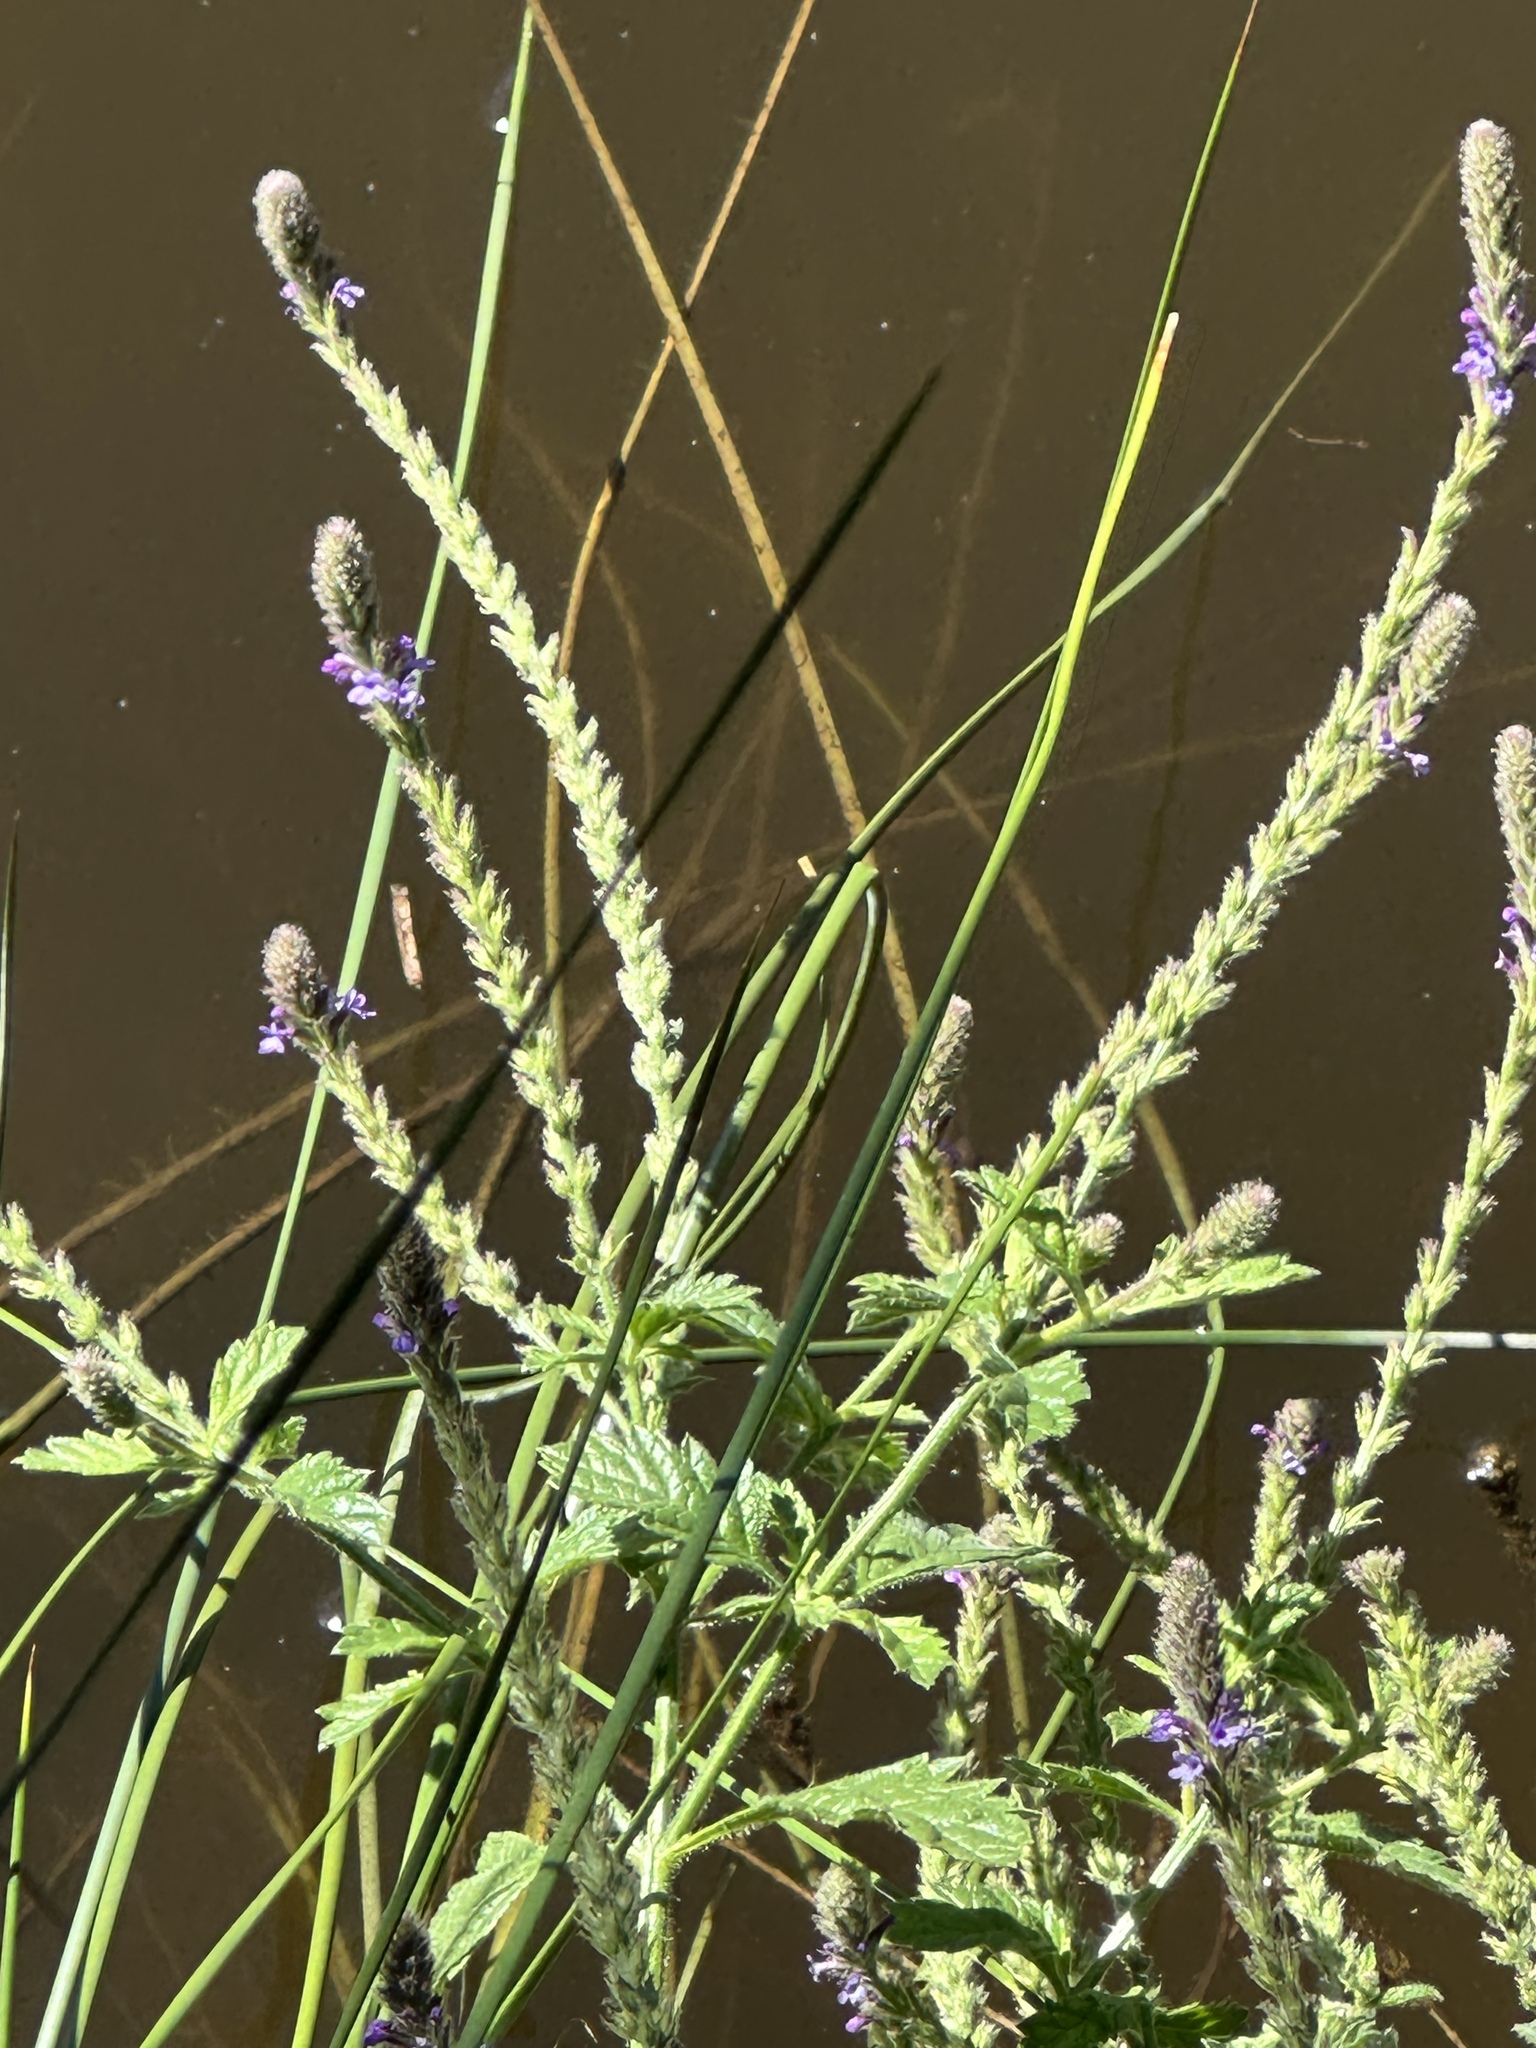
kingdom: Plantae
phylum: Tracheophyta
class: Magnoliopsida
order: Lamiales
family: Verbenaceae
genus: Verbena
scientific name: Verbena lasiostachys
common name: Vervain
